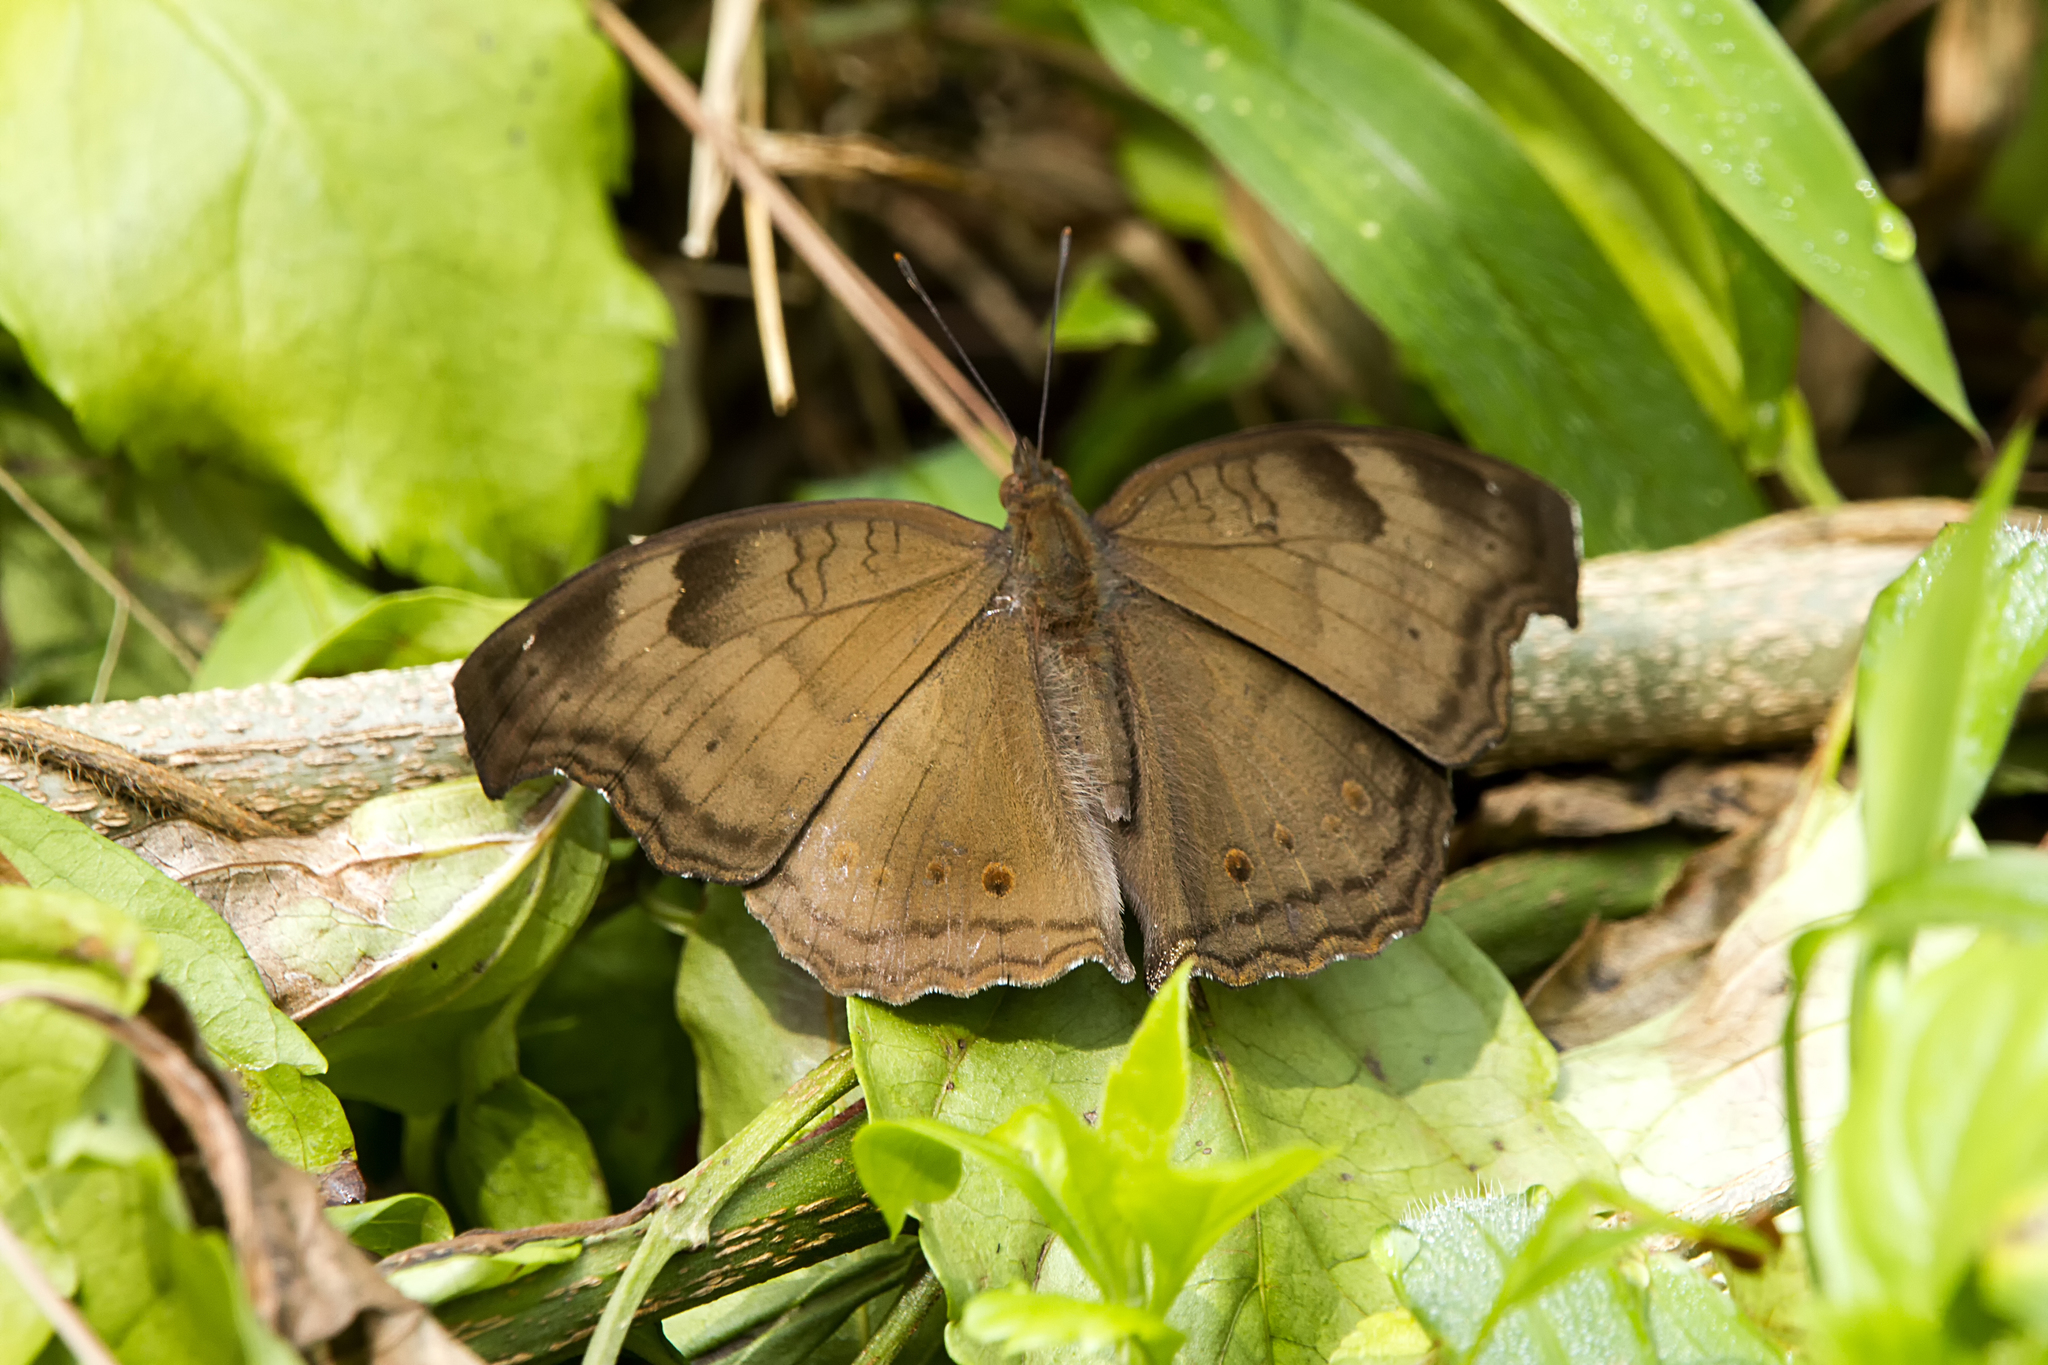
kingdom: Animalia
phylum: Arthropoda
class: Insecta
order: Lepidoptera
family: Nymphalidae
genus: Junonia
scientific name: Junonia iphita
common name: Chocolate pansy
